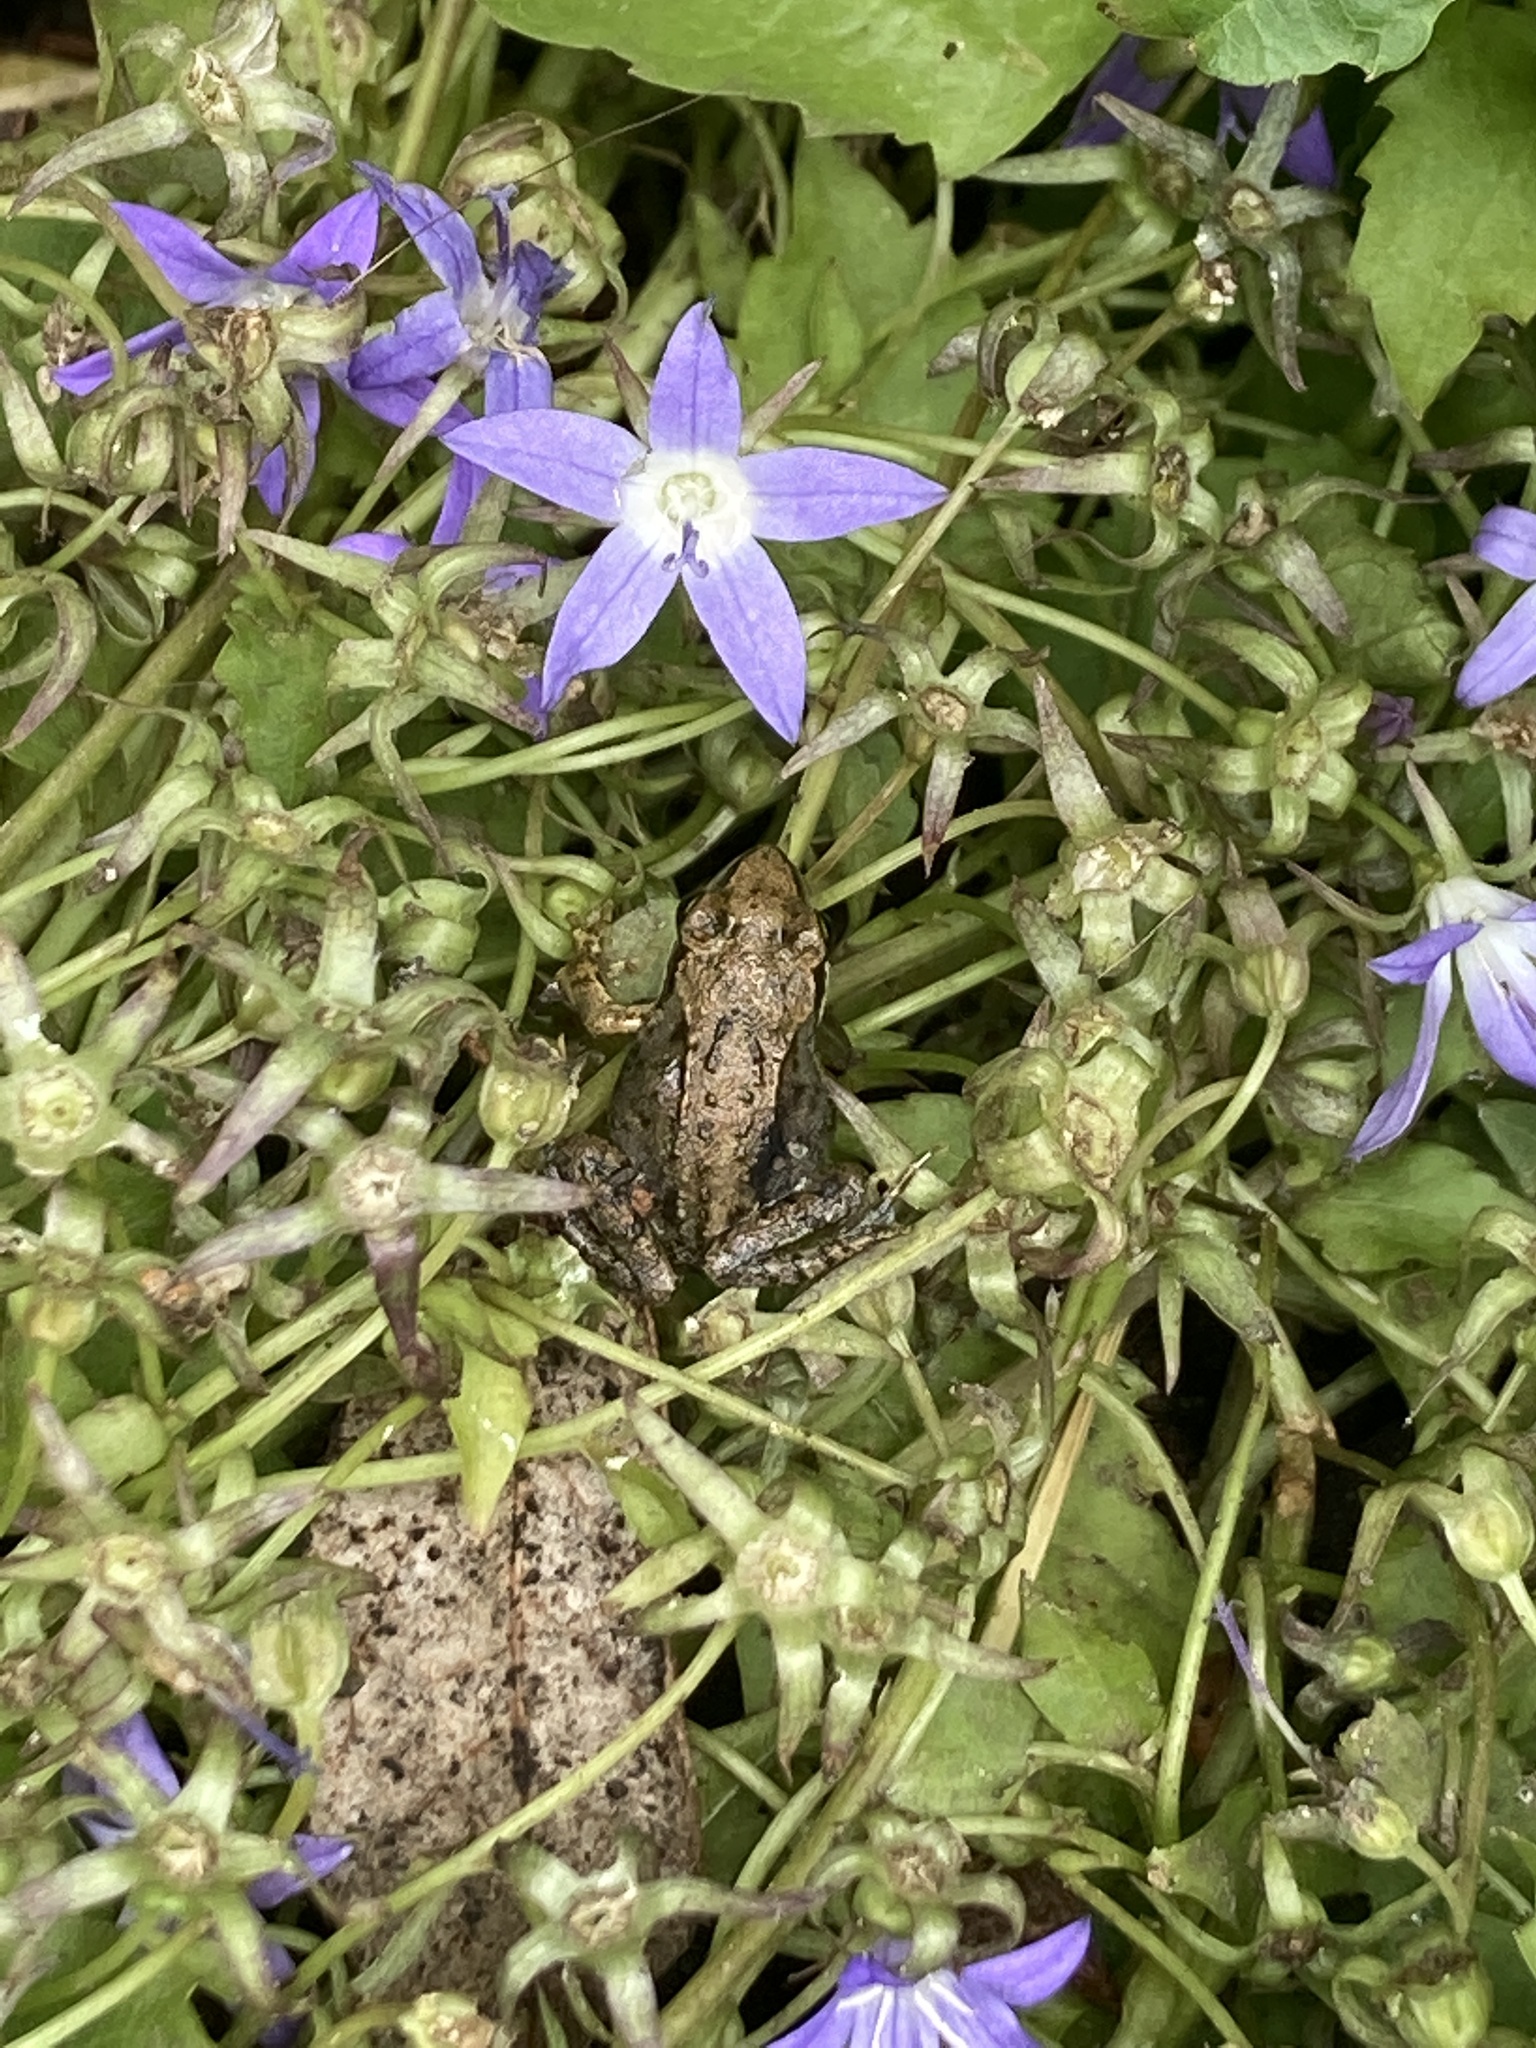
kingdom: Animalia
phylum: Chordata
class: Amphibia
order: Anura
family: Ranidae
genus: Rana
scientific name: Rana temporaria
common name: Common frog
